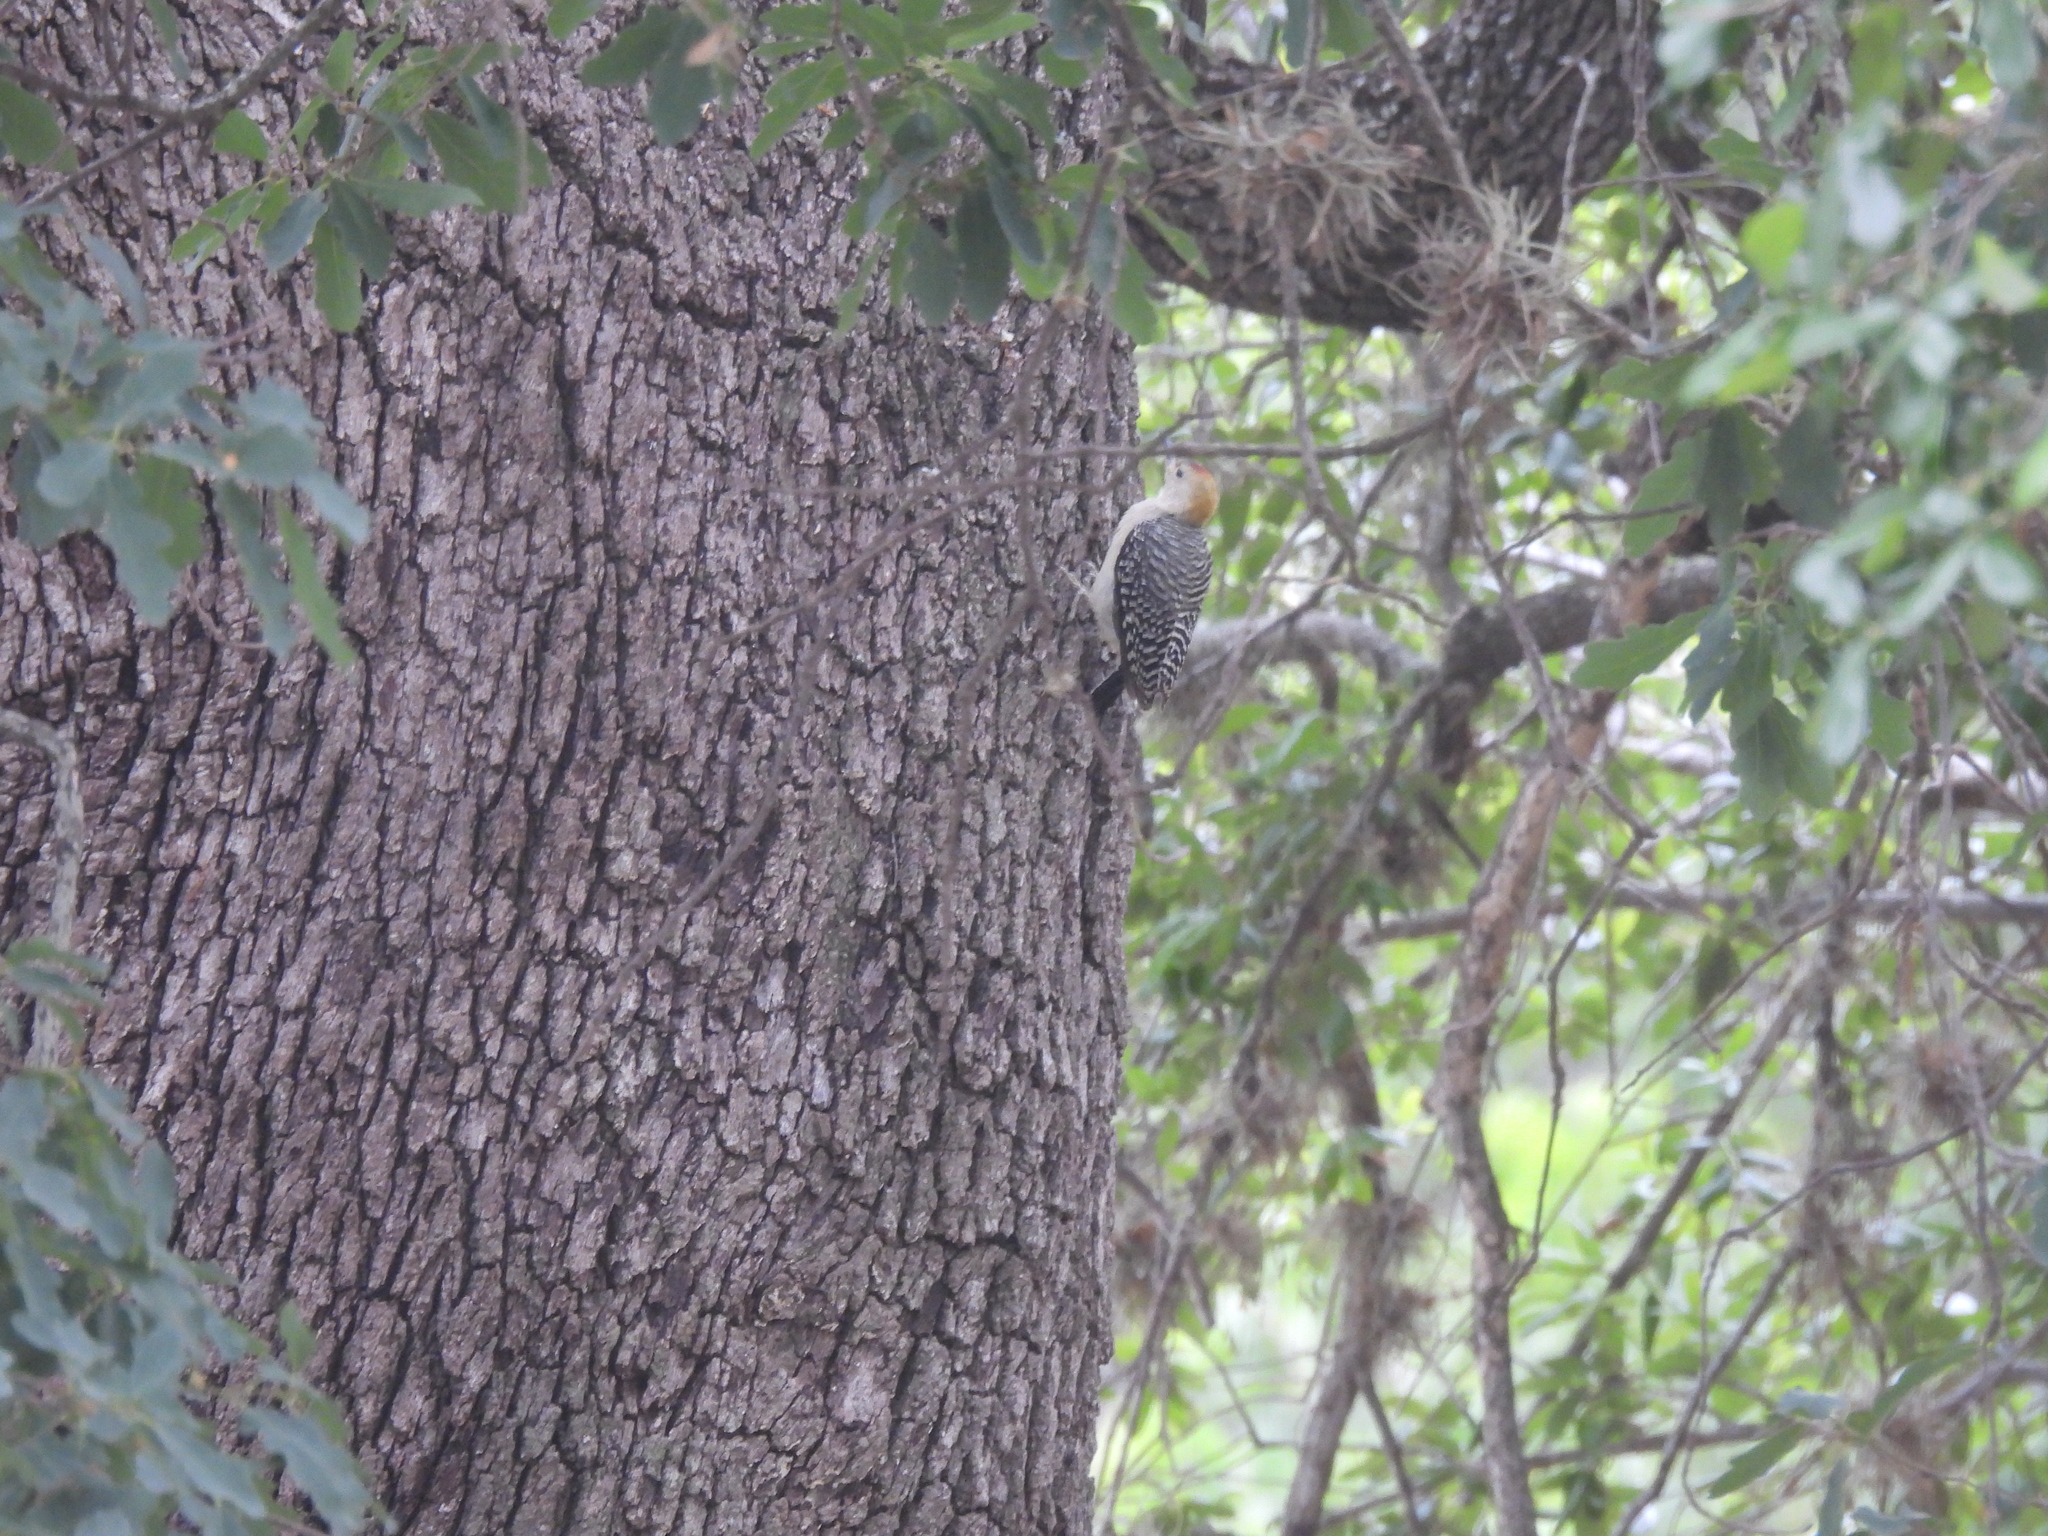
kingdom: Animalia
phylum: Chordata
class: Aves
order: Piciformes
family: Picidae
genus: Melanerpes
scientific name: Melanerpes aurifrons
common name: Golden-fronted woodpecker
